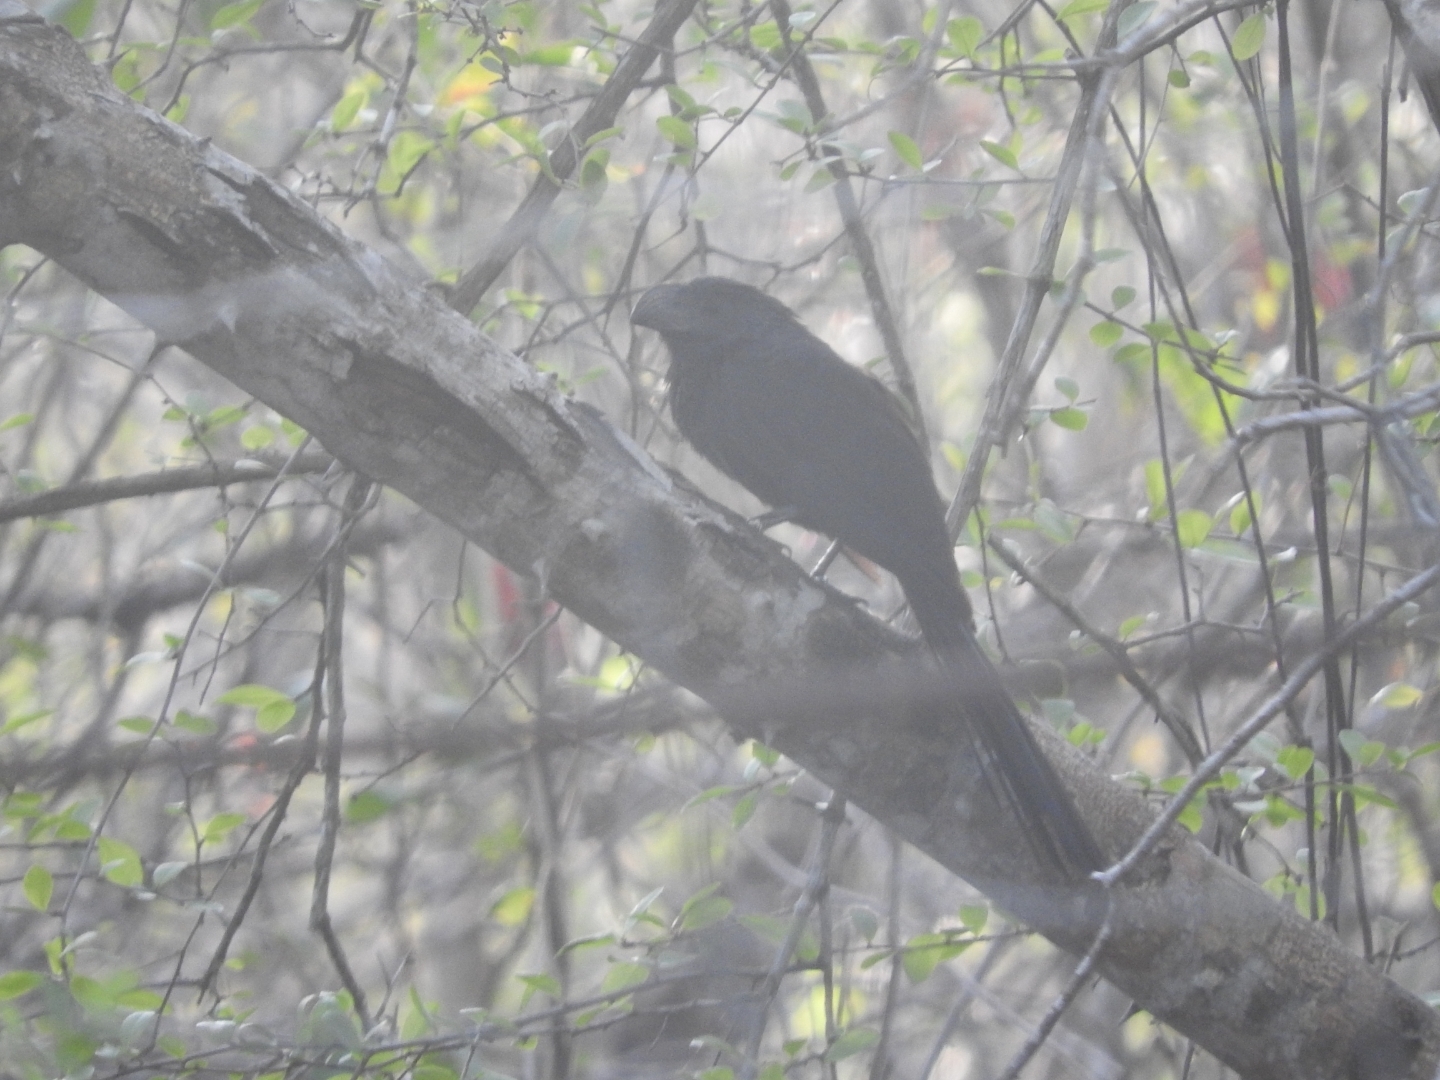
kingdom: Animalia
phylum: Chordata
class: Aves
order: Cuculiformes
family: Cuculidae
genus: Crotophaga
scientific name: Crotophaga sulcirostris
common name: Groove-billed ani
